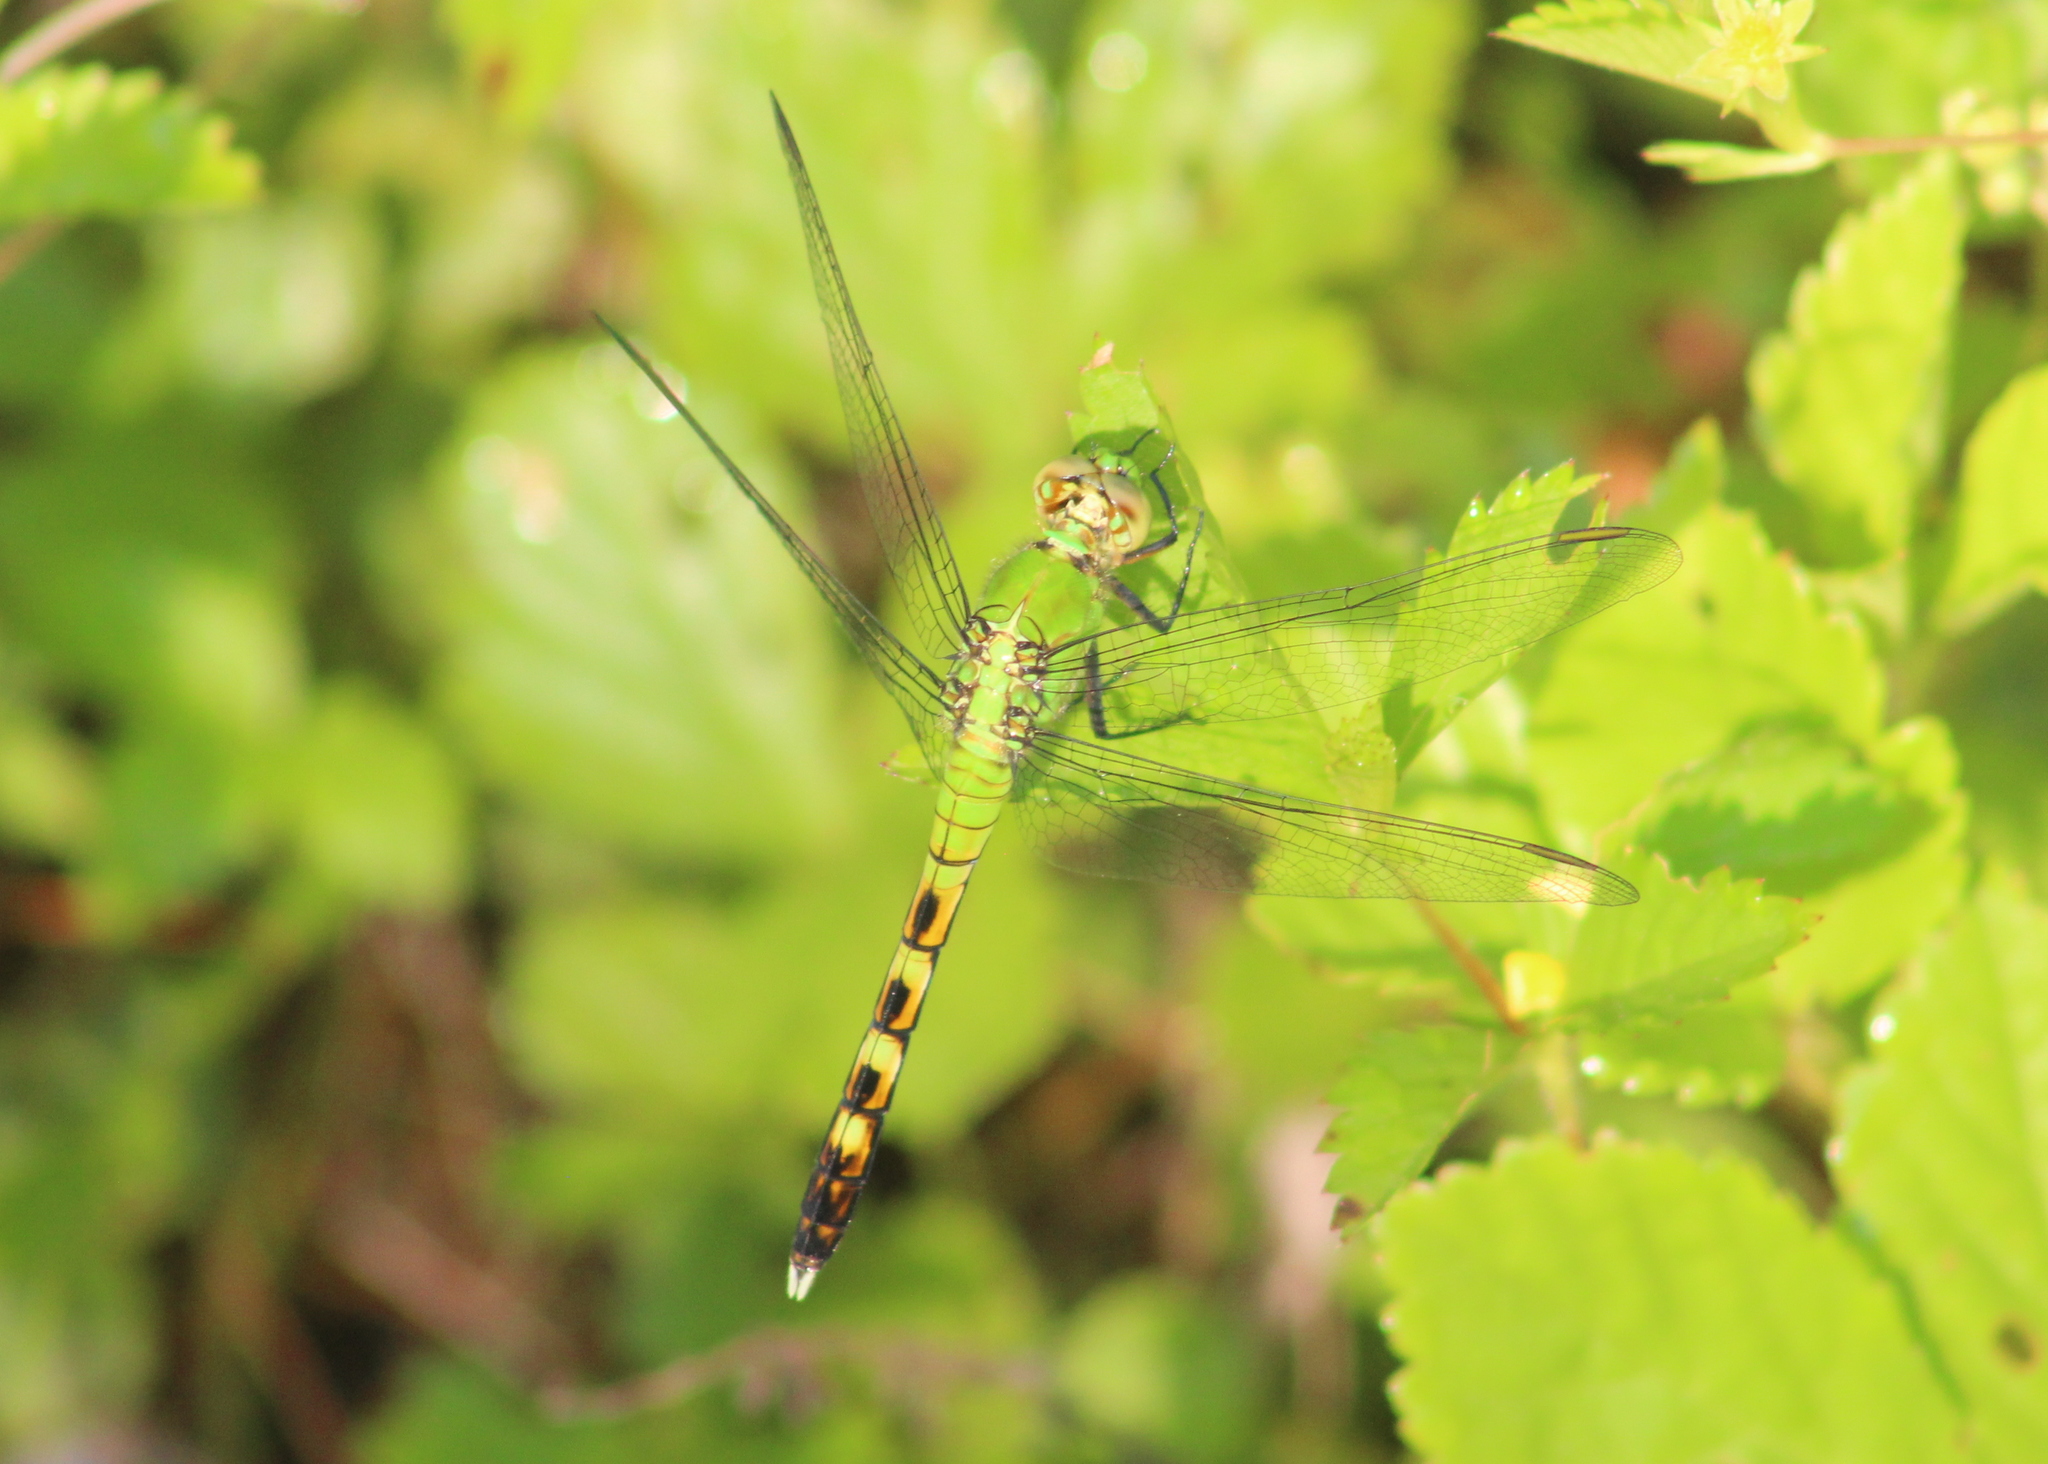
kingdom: Animalia
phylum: Arthropoda
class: Insecta
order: Odonata
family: Libellulidae
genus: Erythemis
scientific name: Erythemis simplicicollis
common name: Eastern pondhawk
